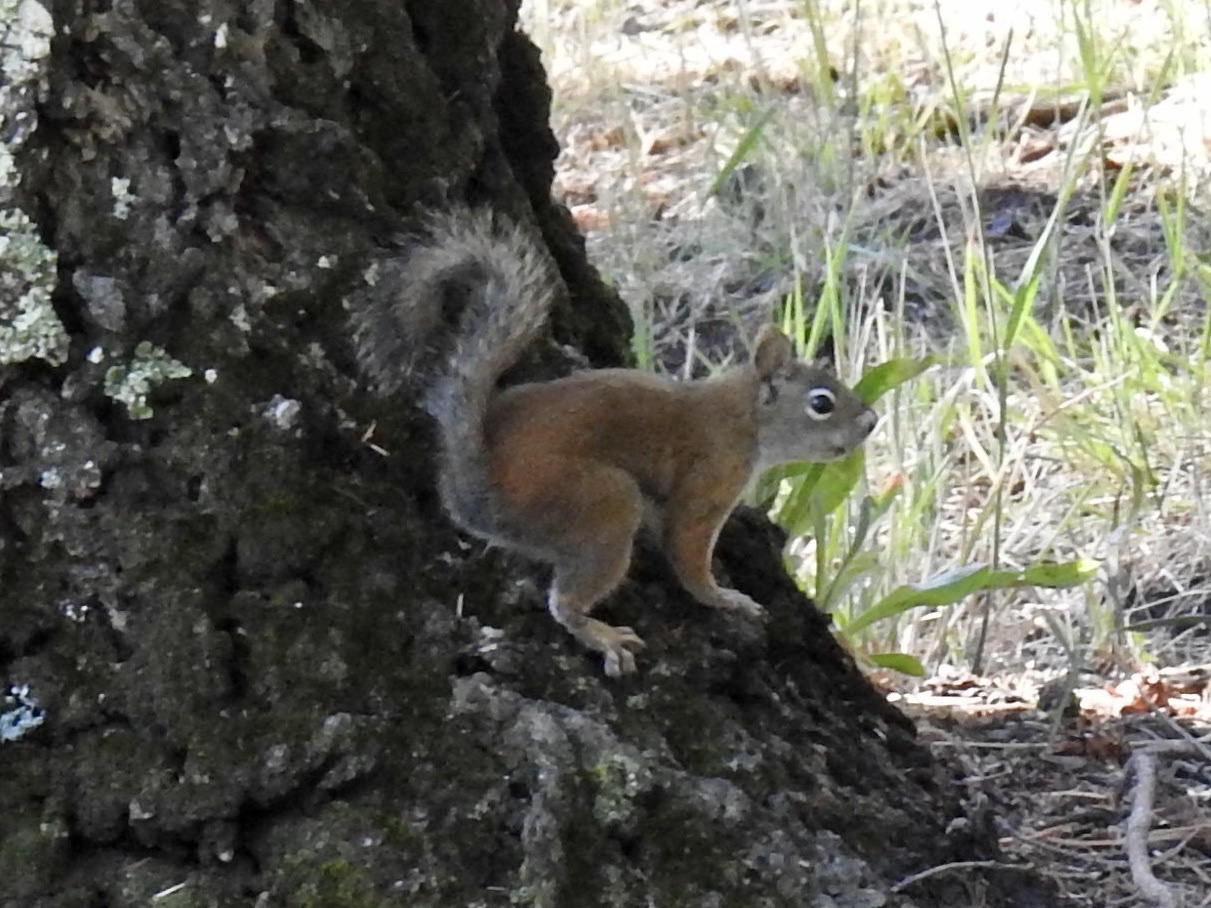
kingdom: Animalia
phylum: Chordata
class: Mammalia
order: Rodentia
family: Sciuridae
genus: Tamiasciurus
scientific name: Tamiasciurus hudsonicus
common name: Red squirrel
